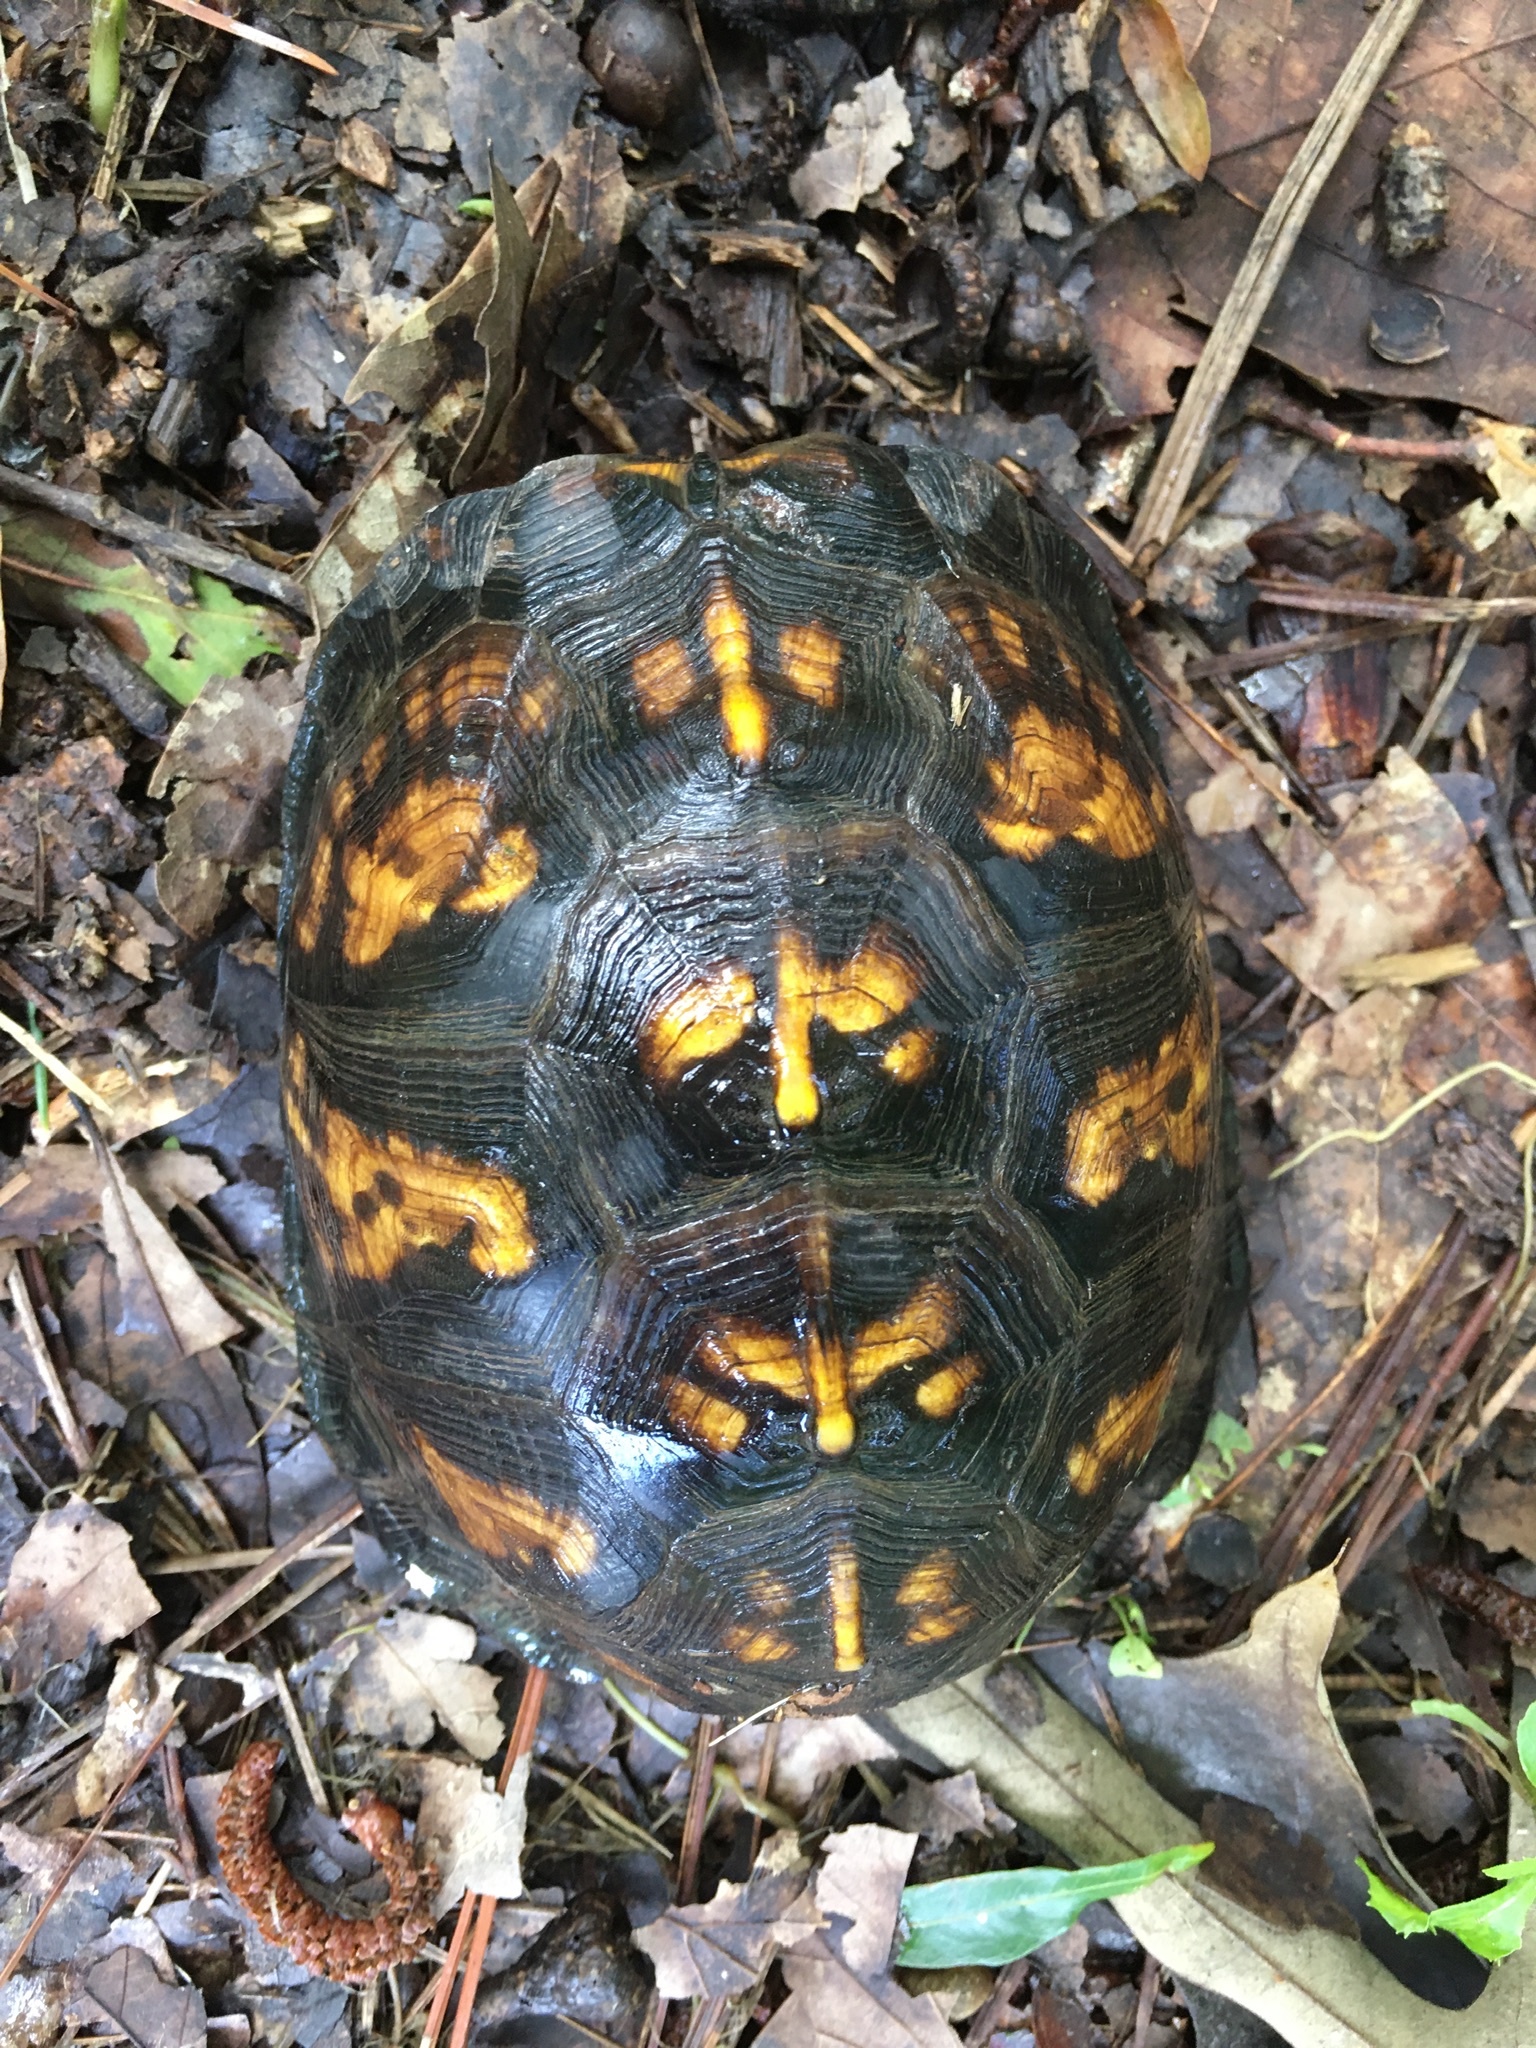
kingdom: Animalia
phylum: Chordata
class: Testudines
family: Emydidae
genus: Terrapene
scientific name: Terrapene carolina
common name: Common box turtle
